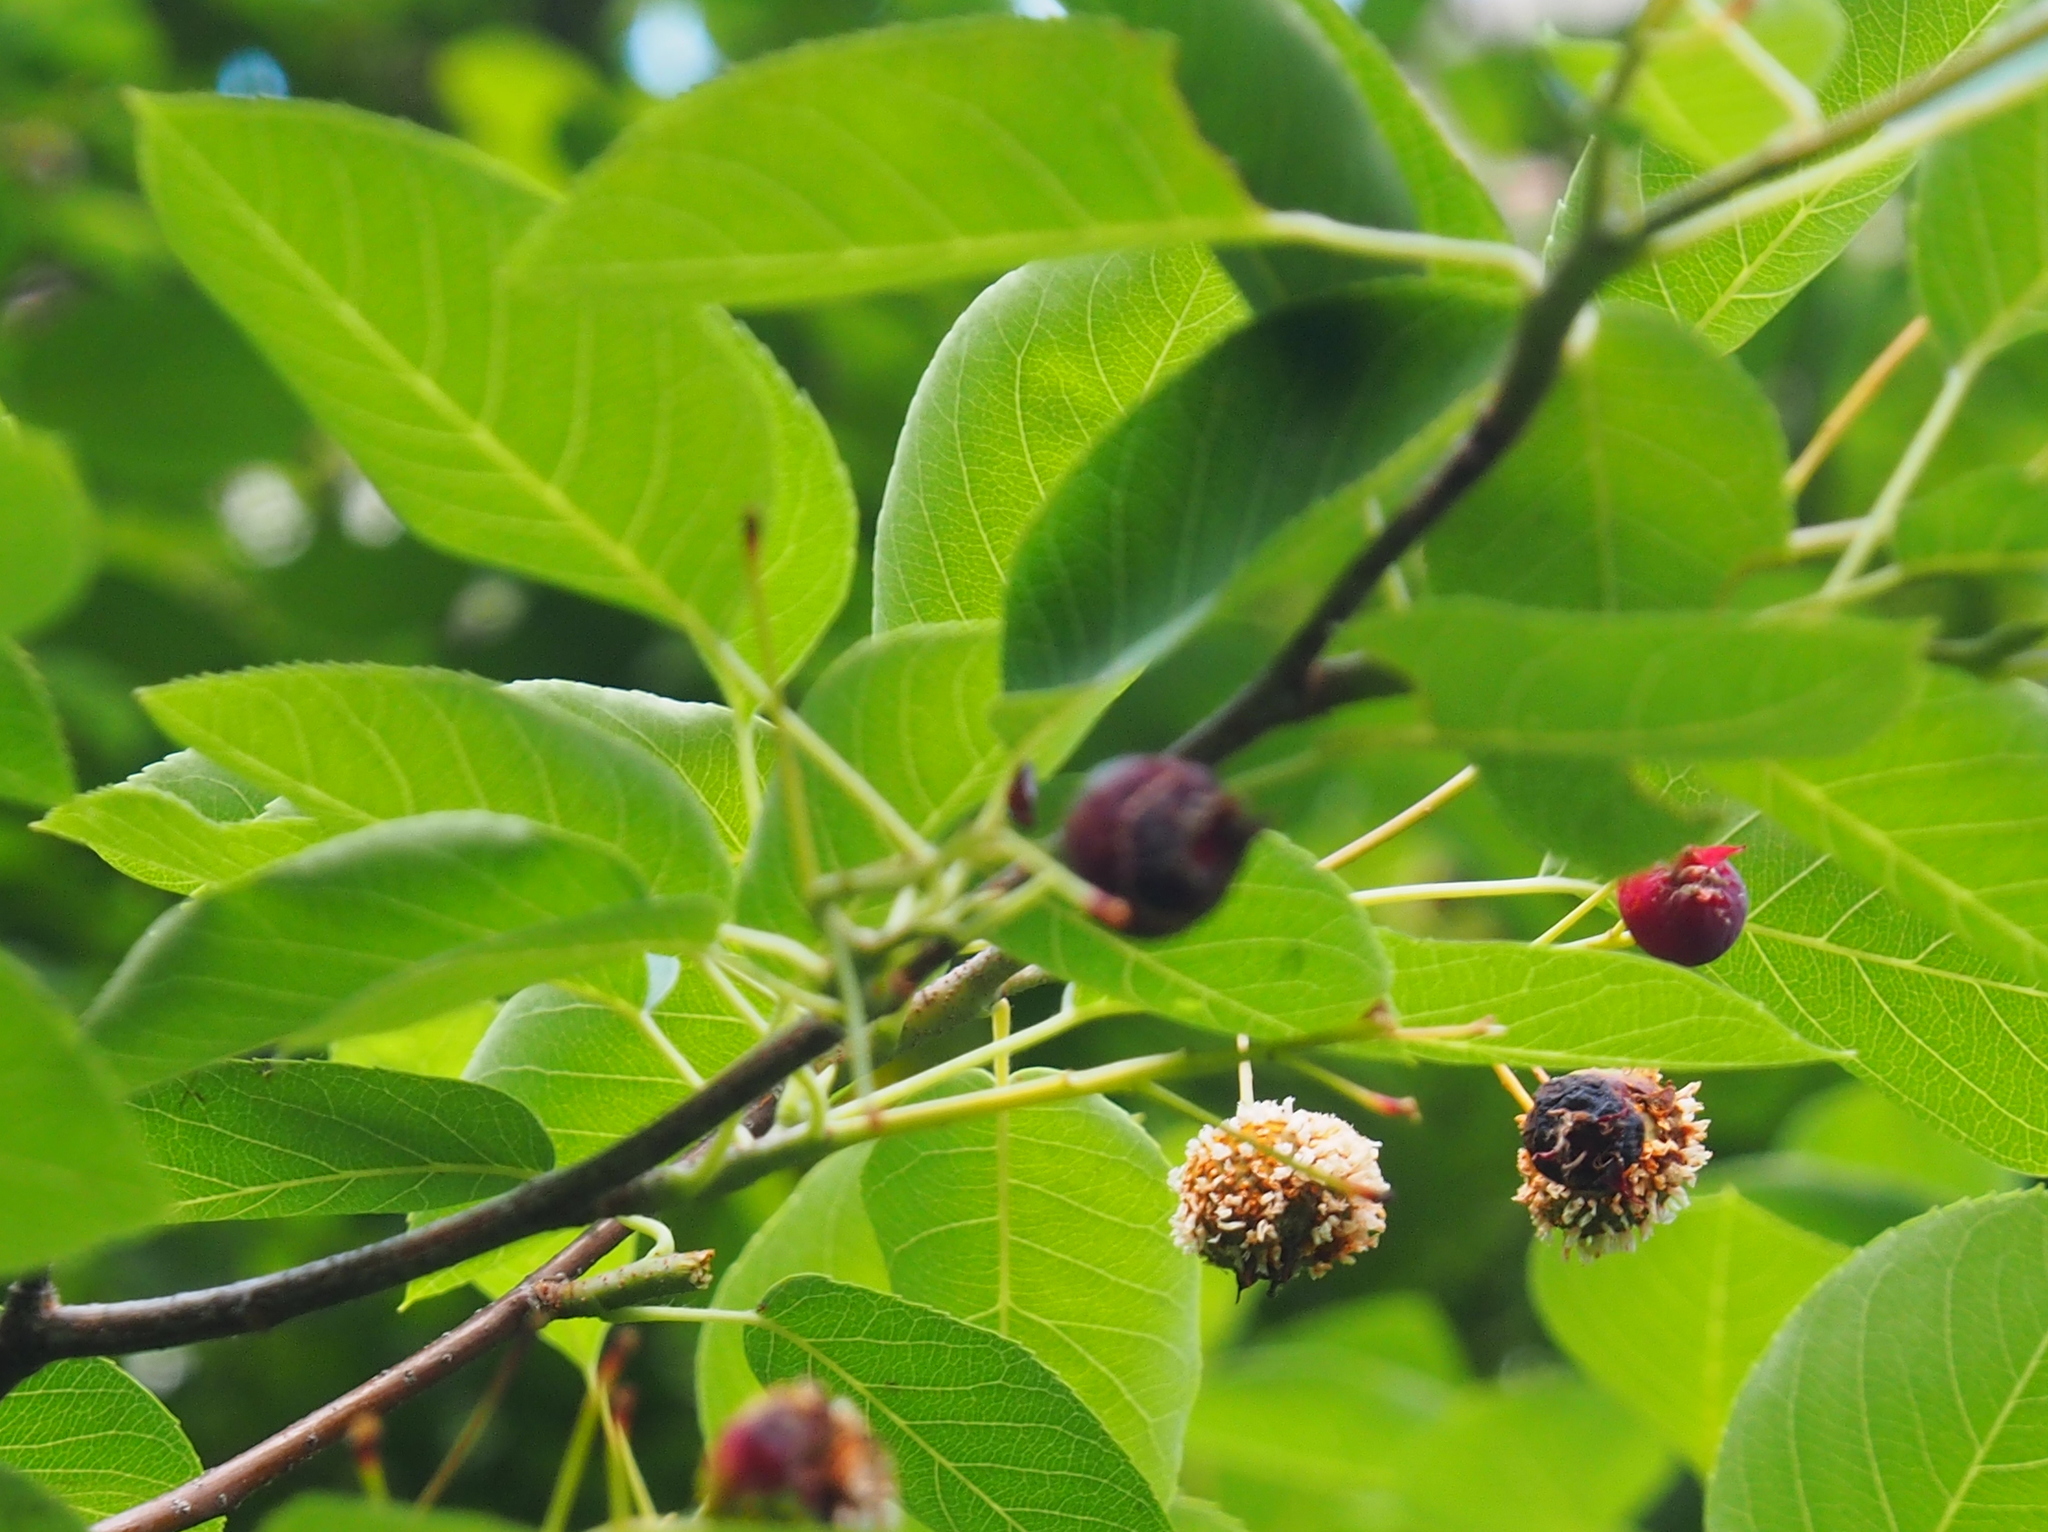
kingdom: Fungi
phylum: Basidiomycota
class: Pucciniomycetes
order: Pucciniales
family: Gymnosporangiaceae
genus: Gymnosporangium
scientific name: Gymnosporangium juniperi-virginianae
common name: Juniper-apple rust
